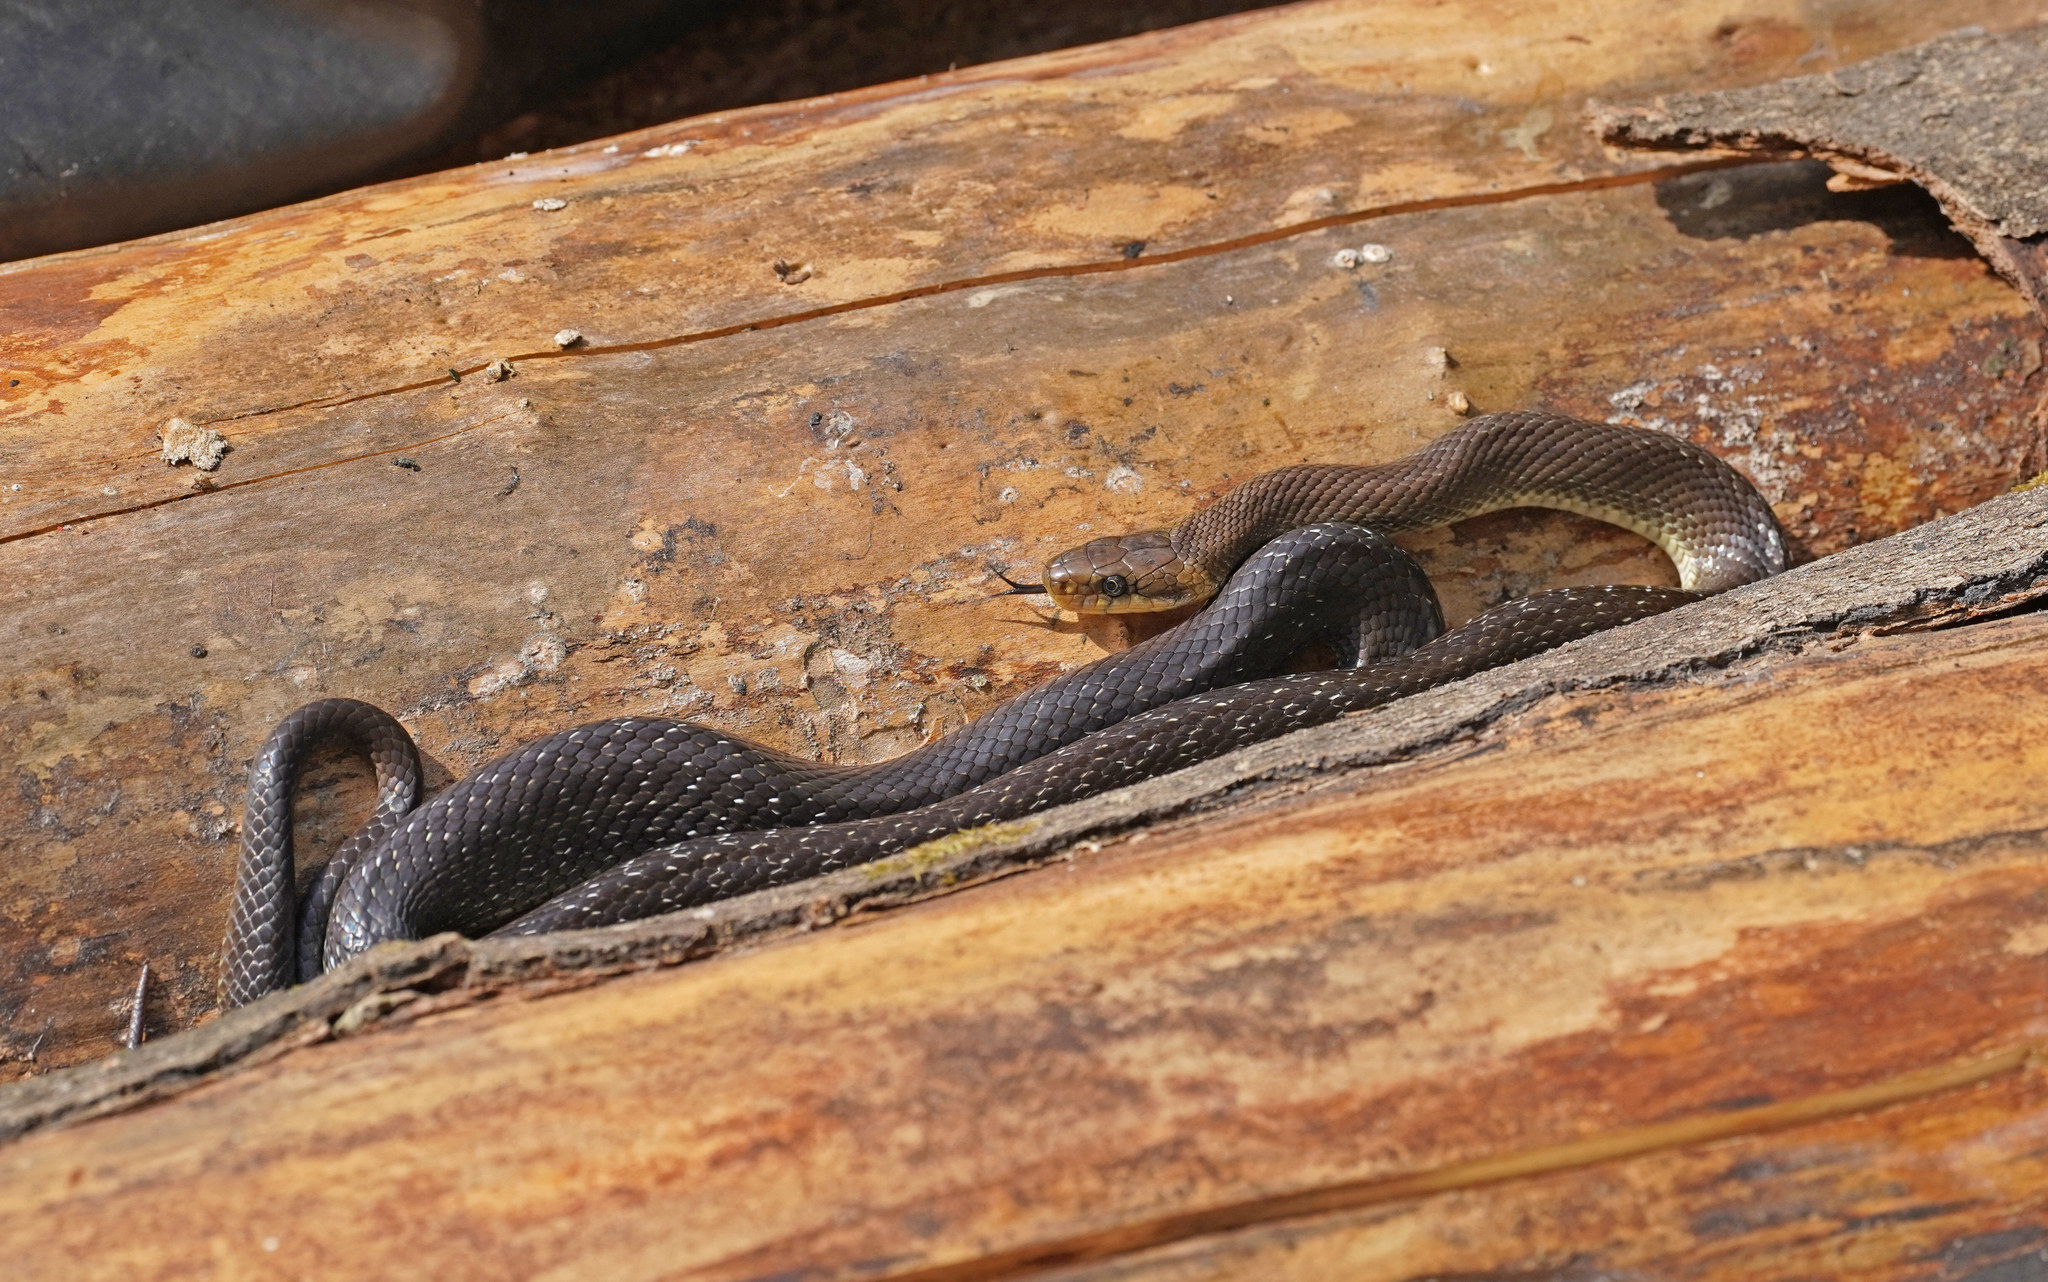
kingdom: Animalia
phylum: Chordata
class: Squamata
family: Colubridae
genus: Zamenis
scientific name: Zamenis longissimus
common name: Aesculapean snake
